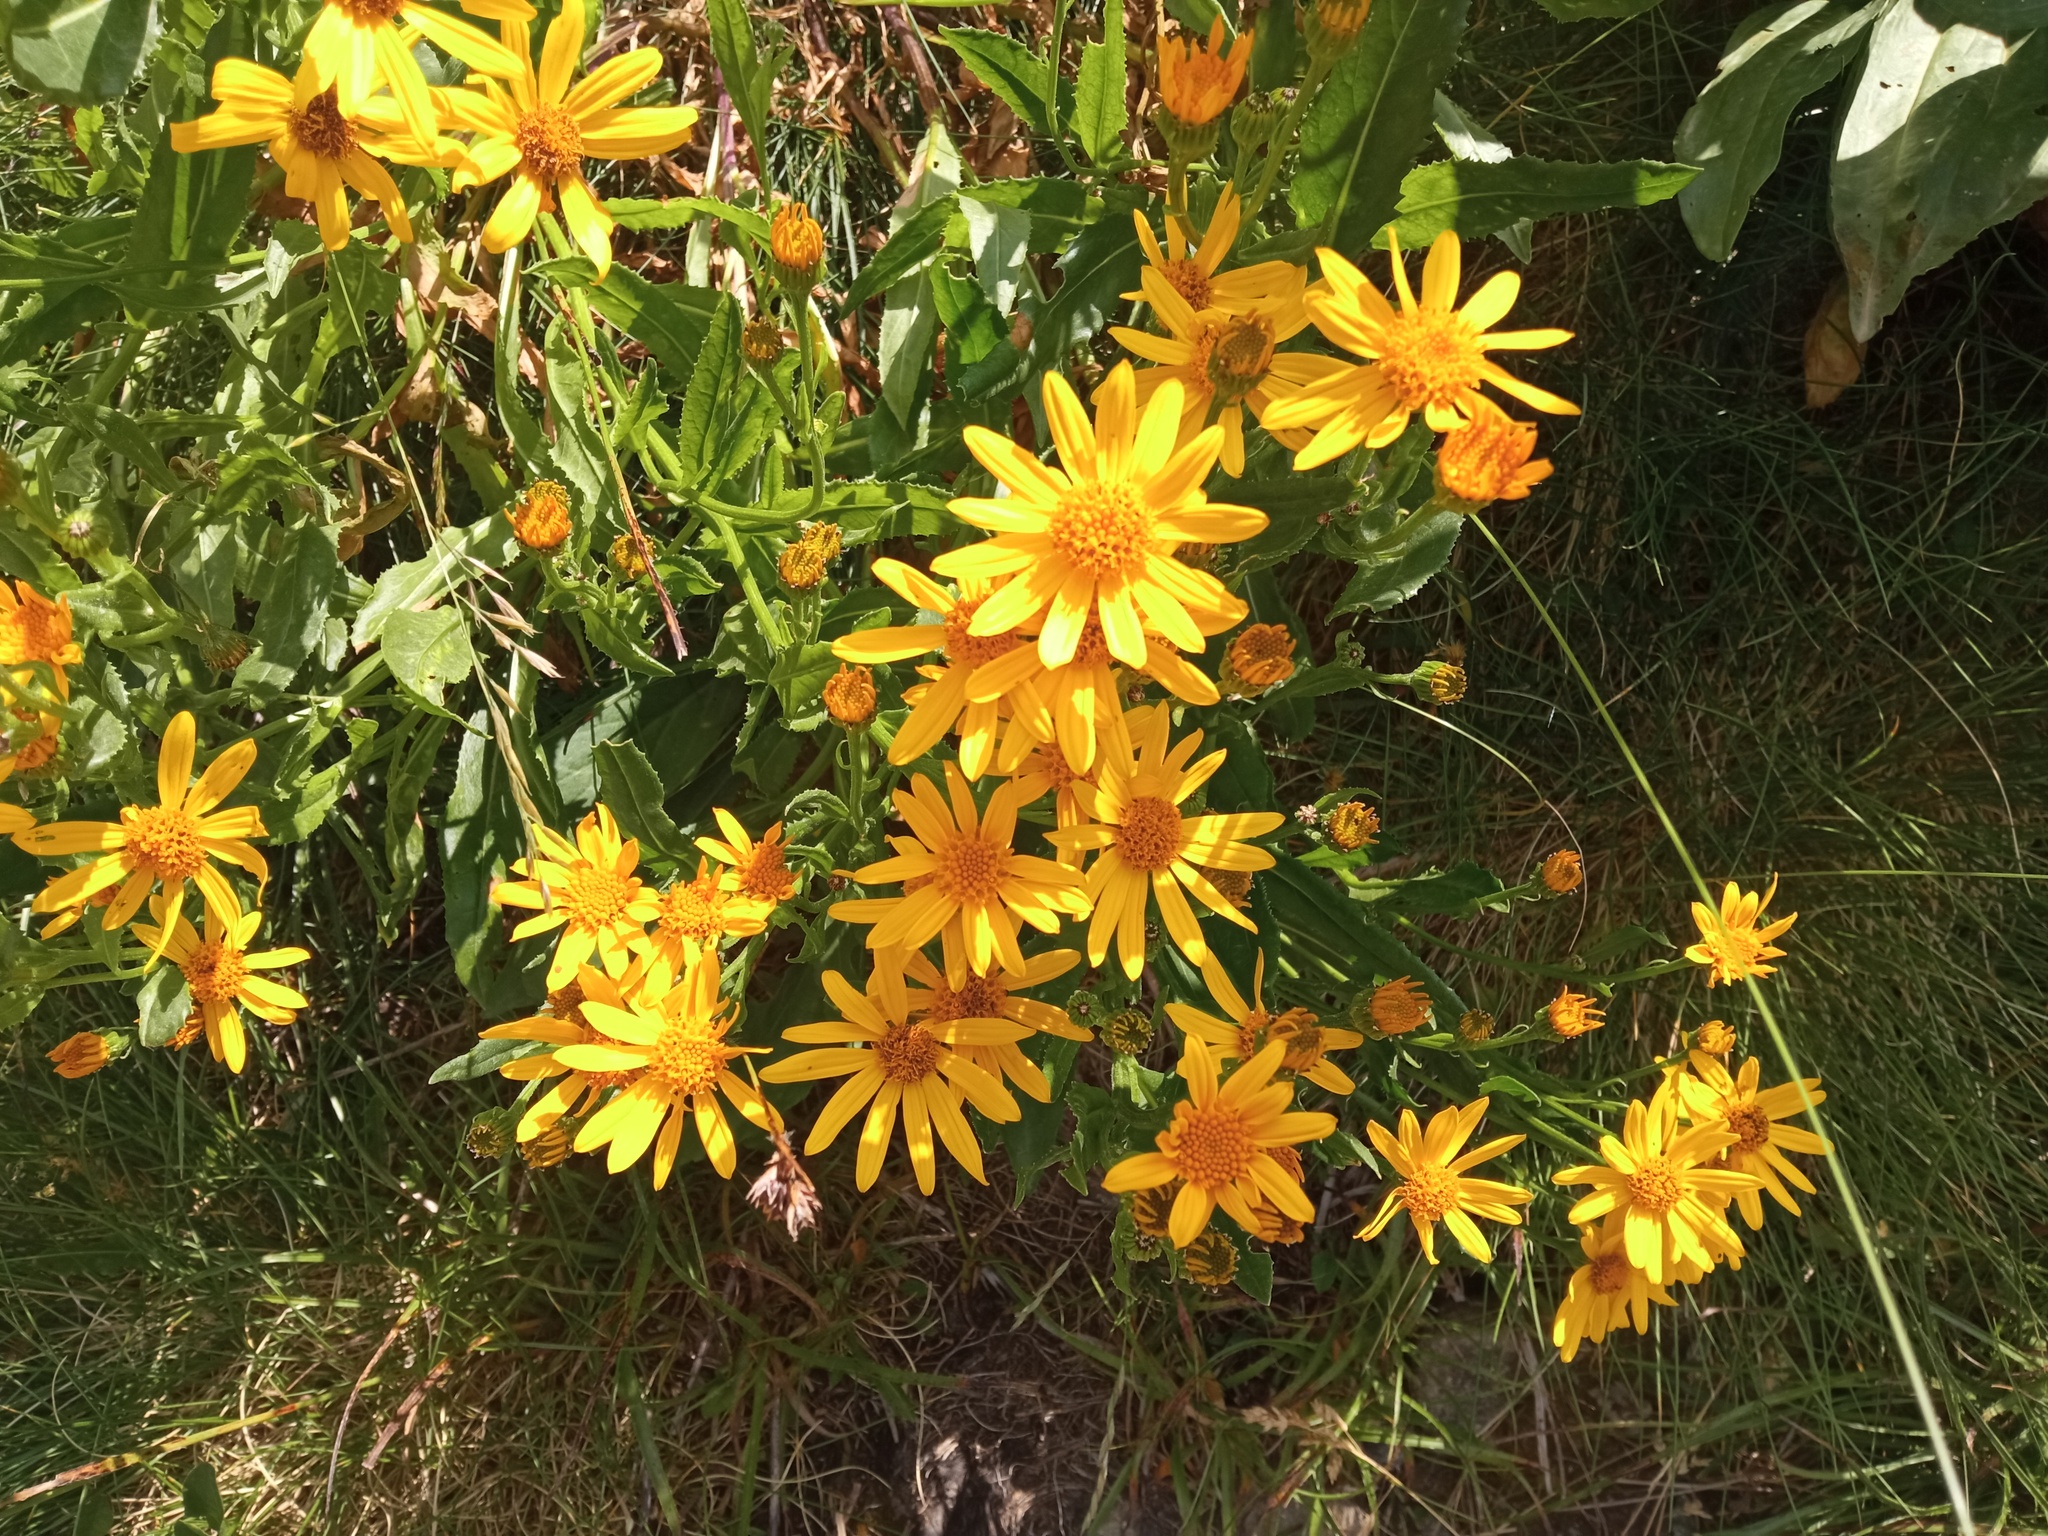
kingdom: Plantae
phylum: Tracheophyta
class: Magnoliopsida
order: Asterales
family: Asteraceae
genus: Senecio
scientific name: Senecio pyrenaicus
